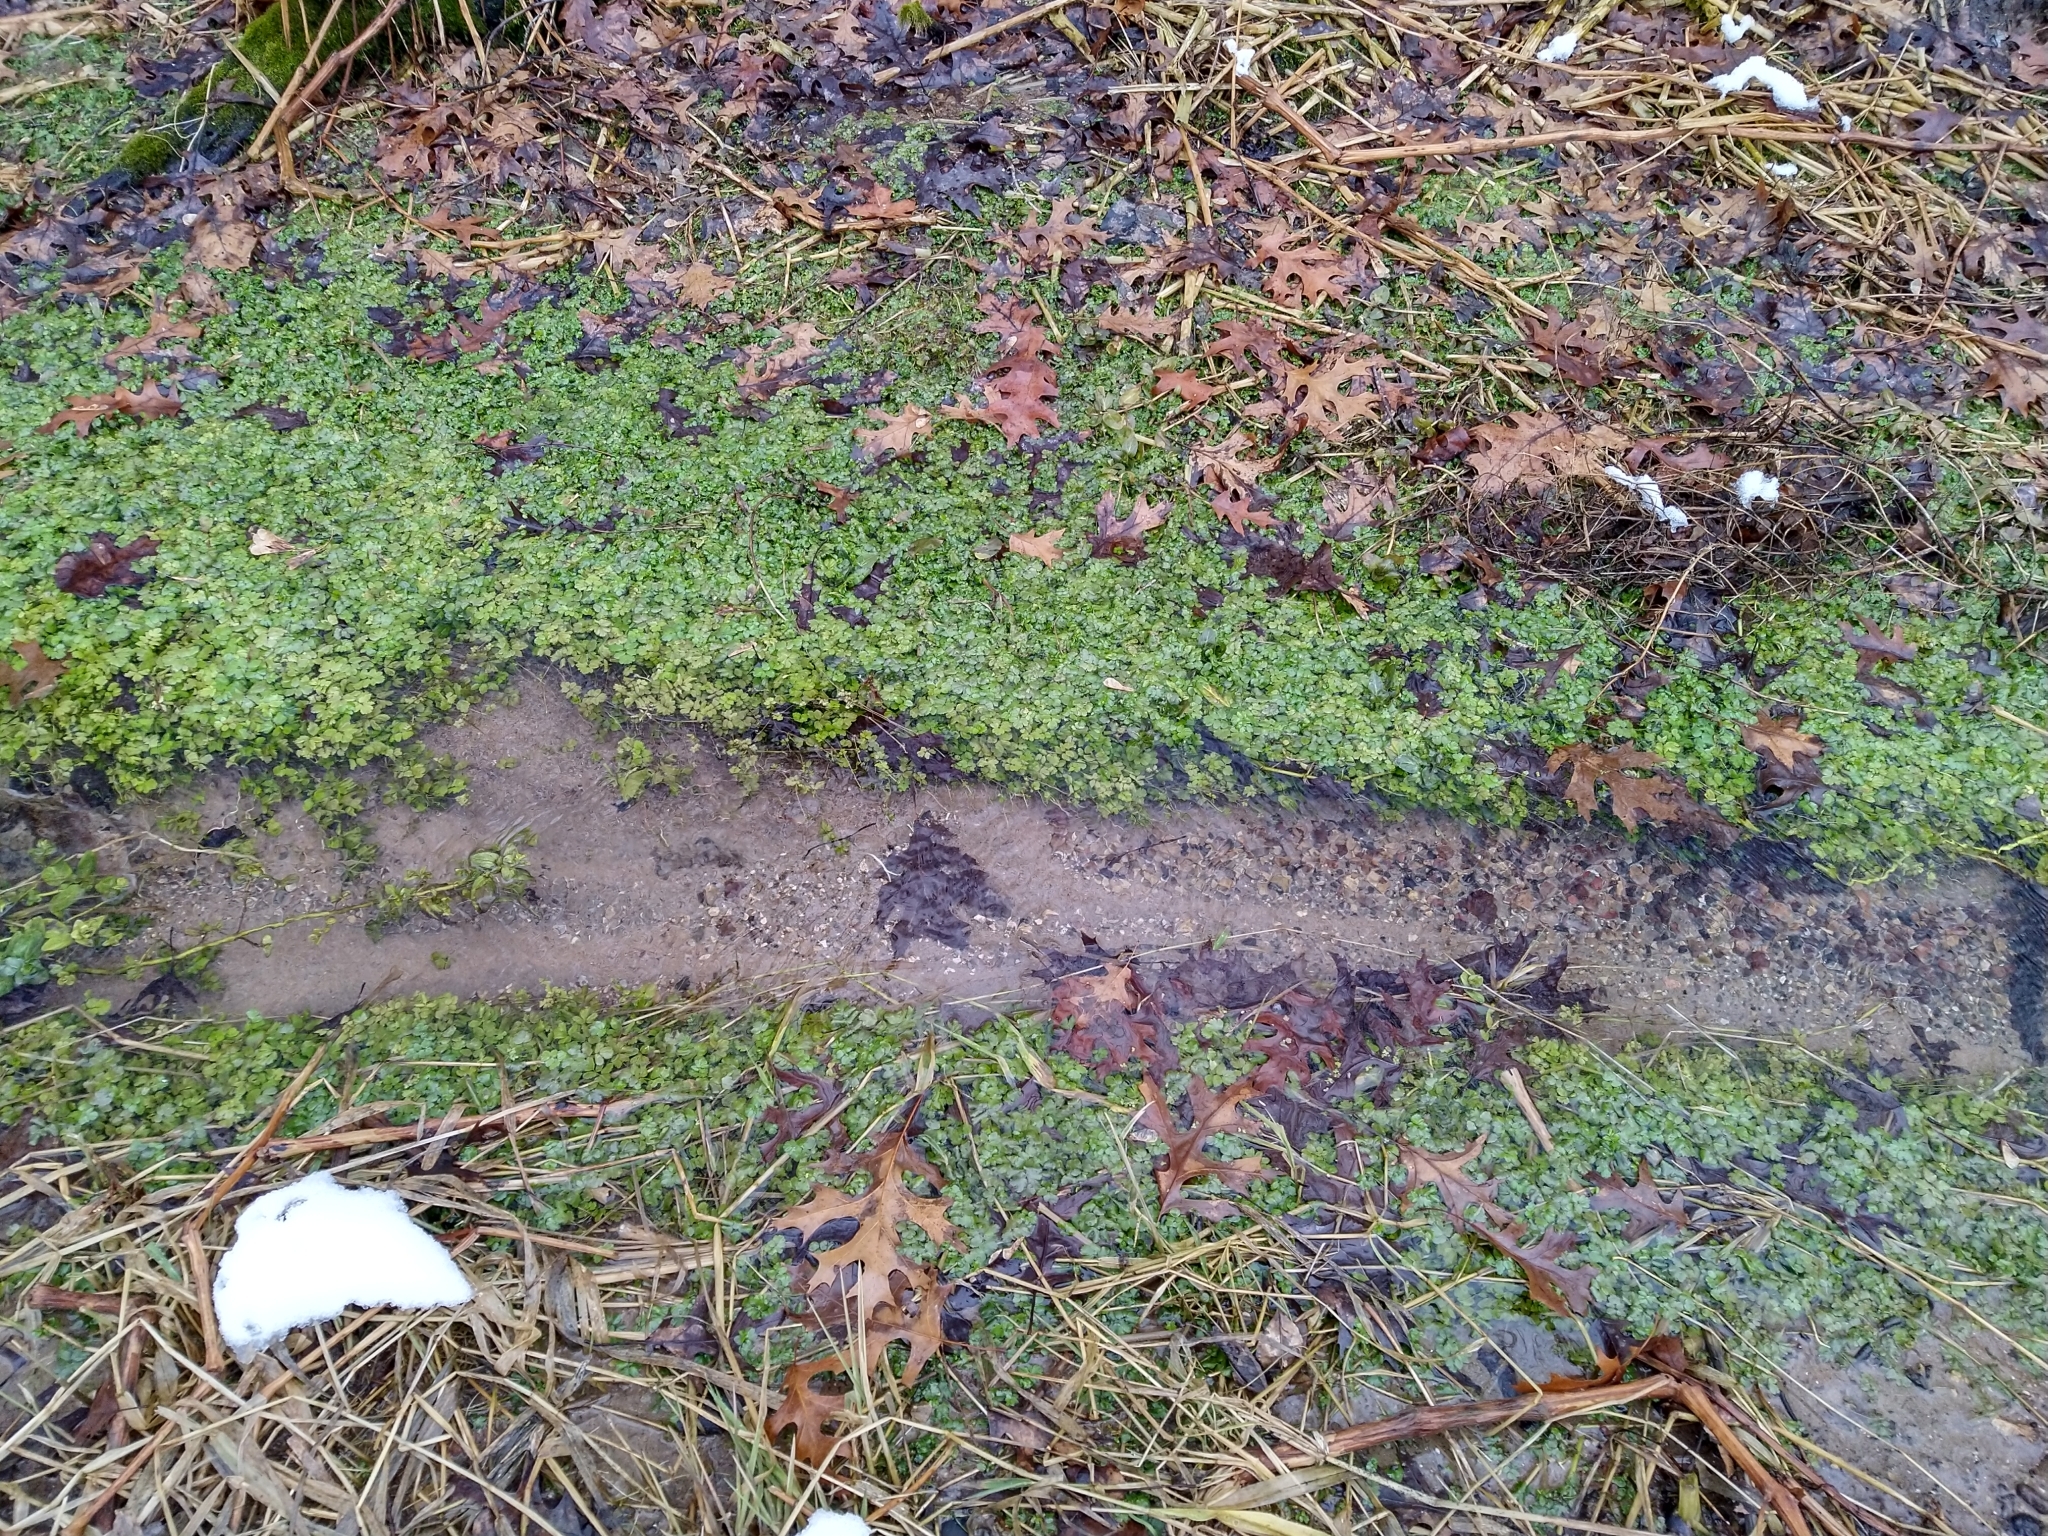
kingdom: Plantae
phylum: Tracheophyta
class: Magnoliopsida
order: Brassicales
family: Brassicaceae
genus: Nasturtium
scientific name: Nasturtium officinale
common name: Watercress
